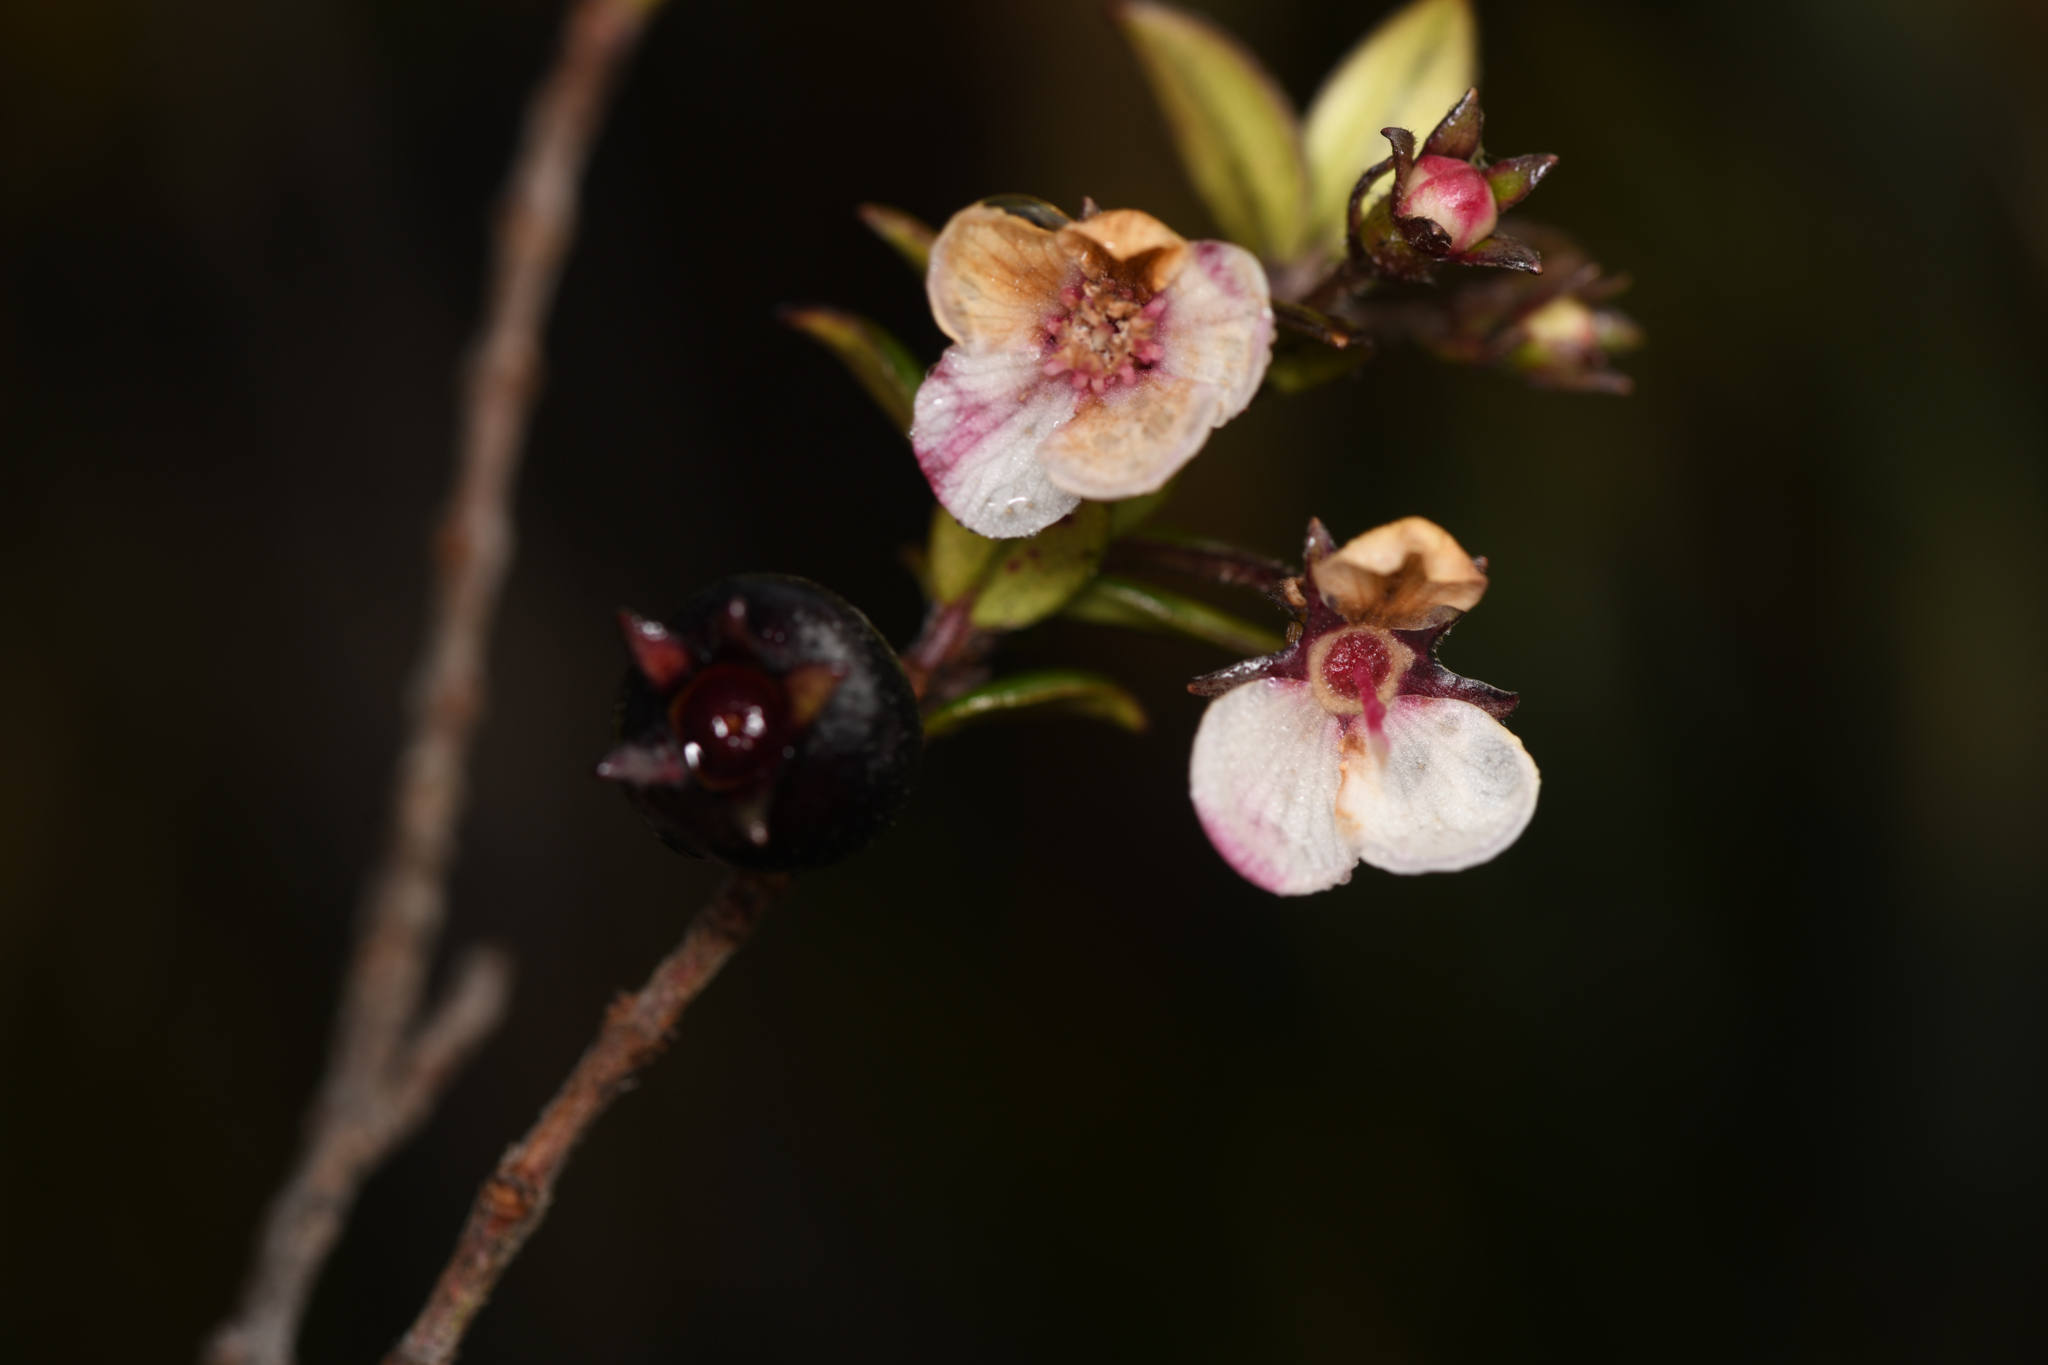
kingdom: Plantae
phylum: Tracheophyta
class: Magnoliopsida
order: Myrtales
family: Myrtaceae
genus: Ugni
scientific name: Ugni myricoides
